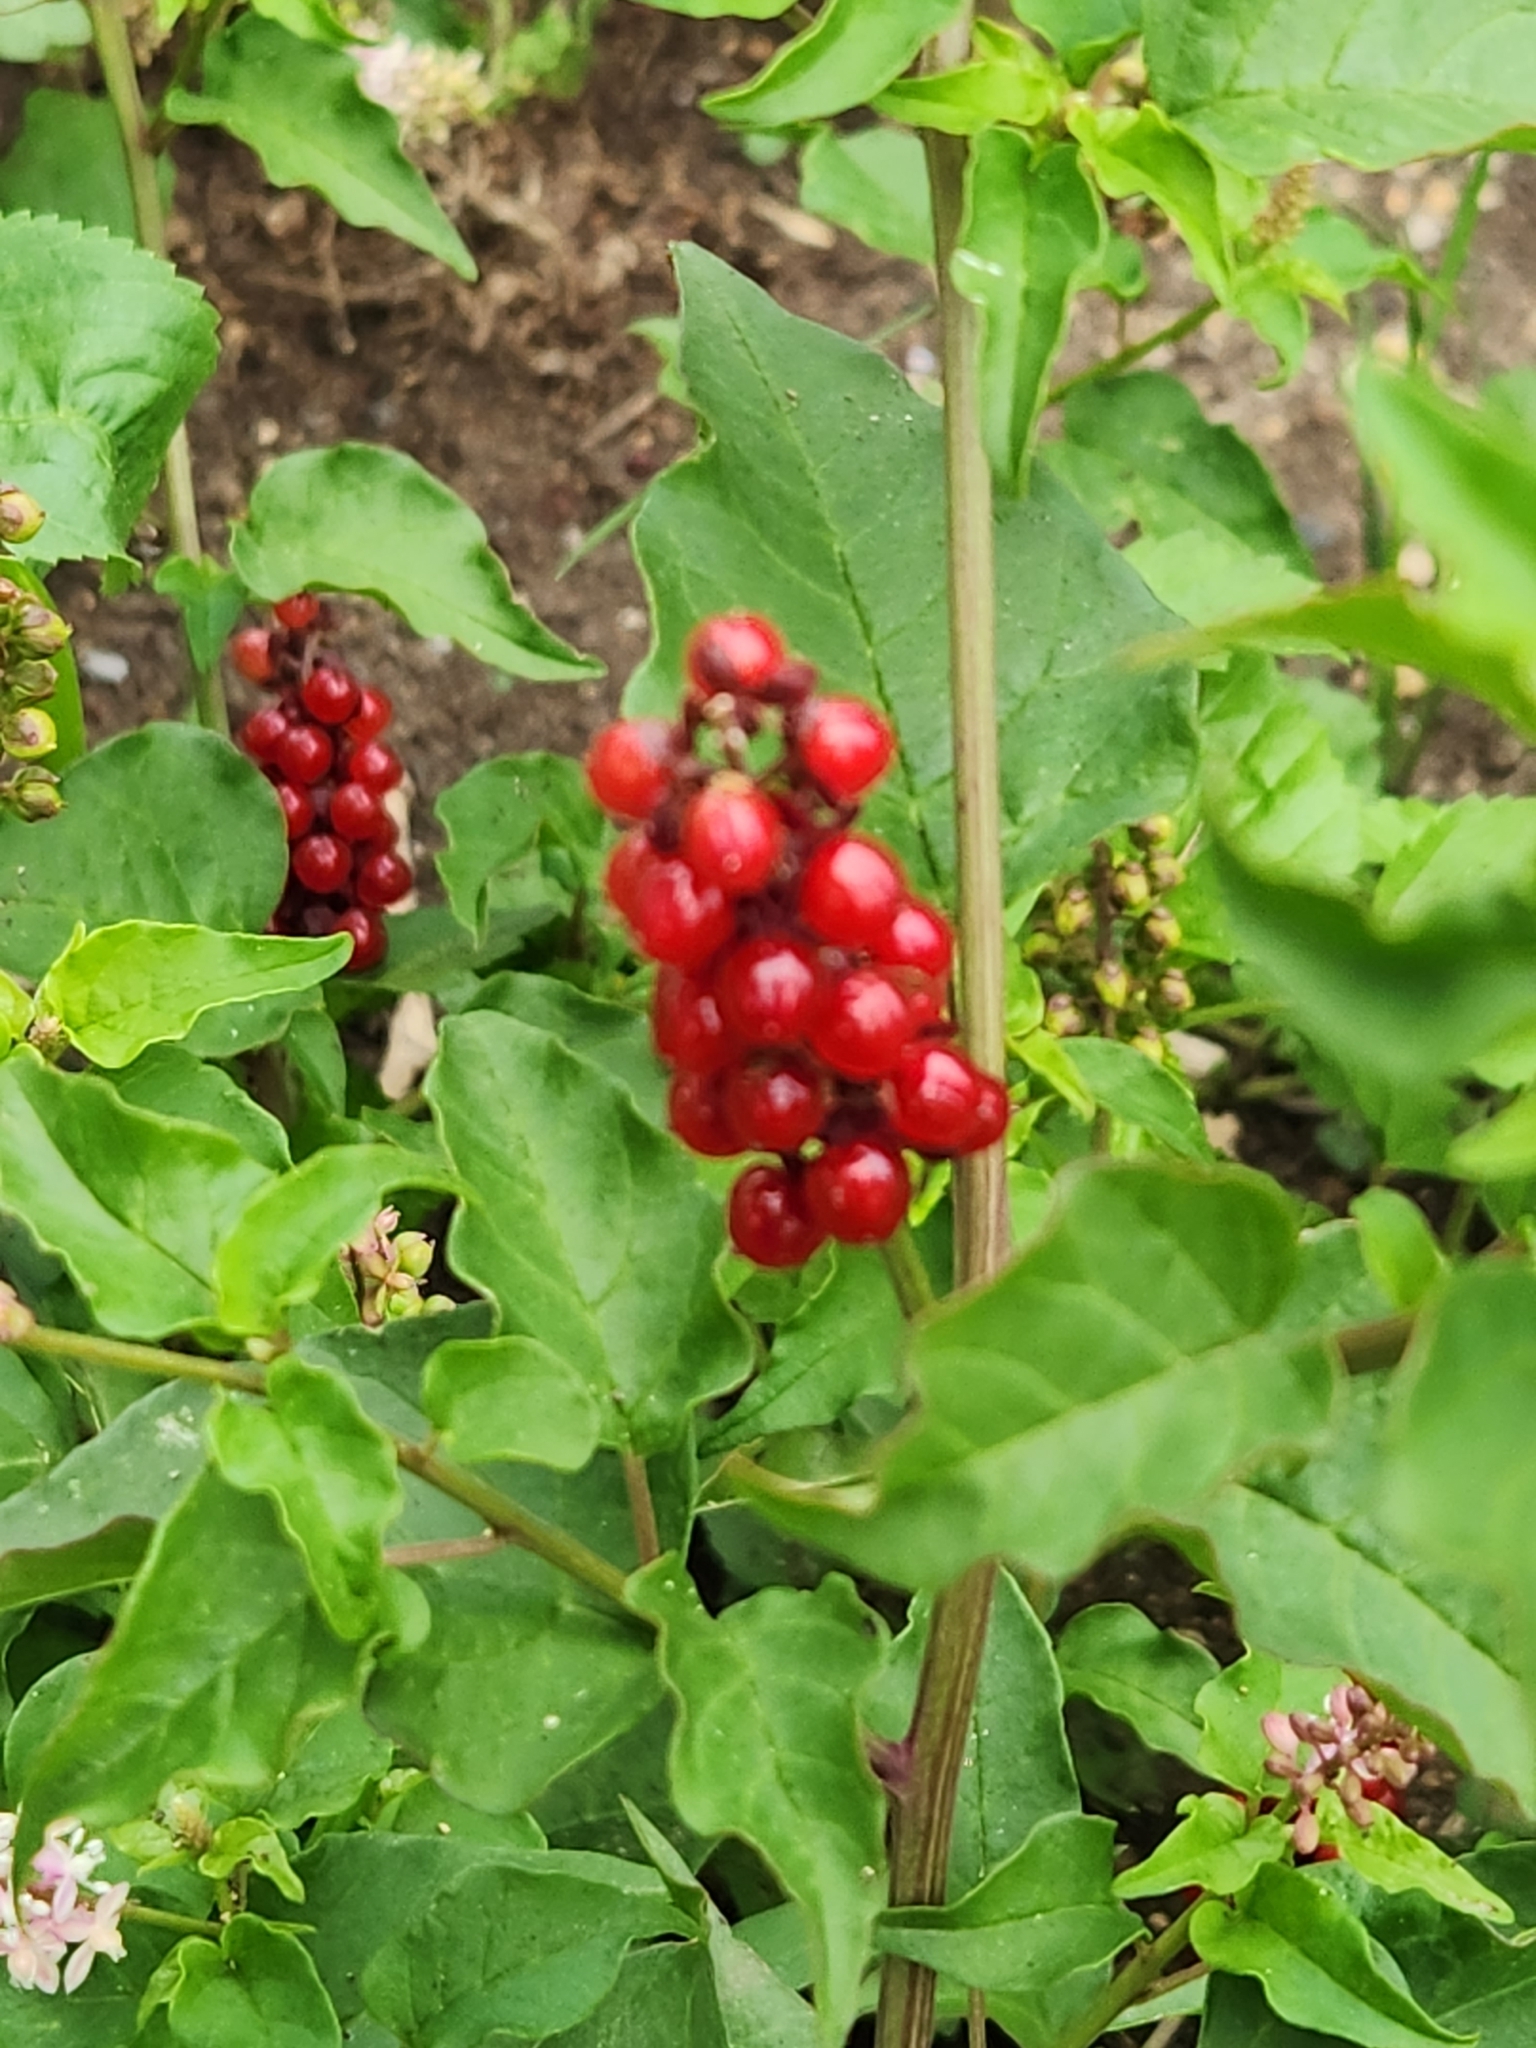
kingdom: Plantae
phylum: Tracheophyta
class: Magnoliopsida
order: Caryophyllales
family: Phytolaccaceae
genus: Rivina
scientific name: Rivina humilis
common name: Rougeplant
